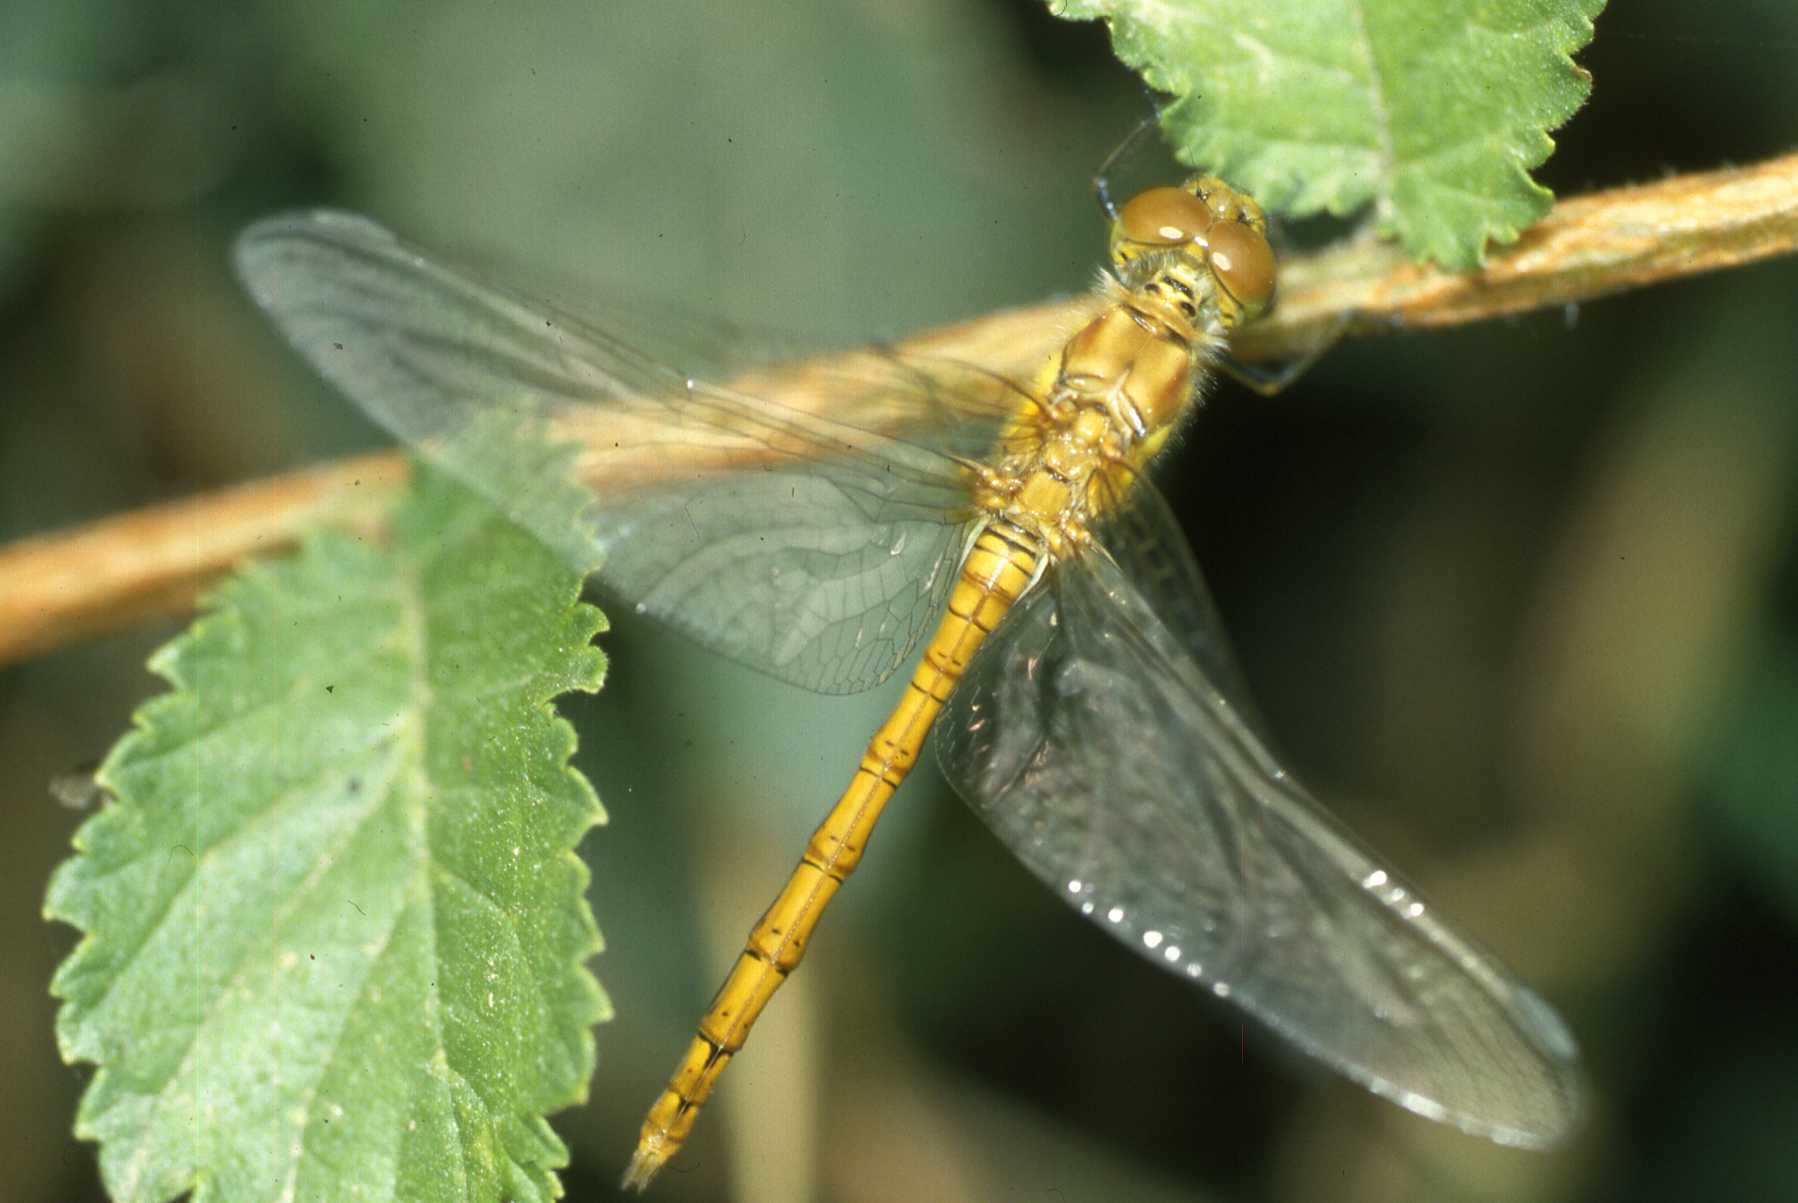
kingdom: Animalia
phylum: Arthropoda
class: Insecta
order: Odonata
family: Libellulidae
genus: Sympetrum
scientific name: Sympetrum striolatum
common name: Common darter
